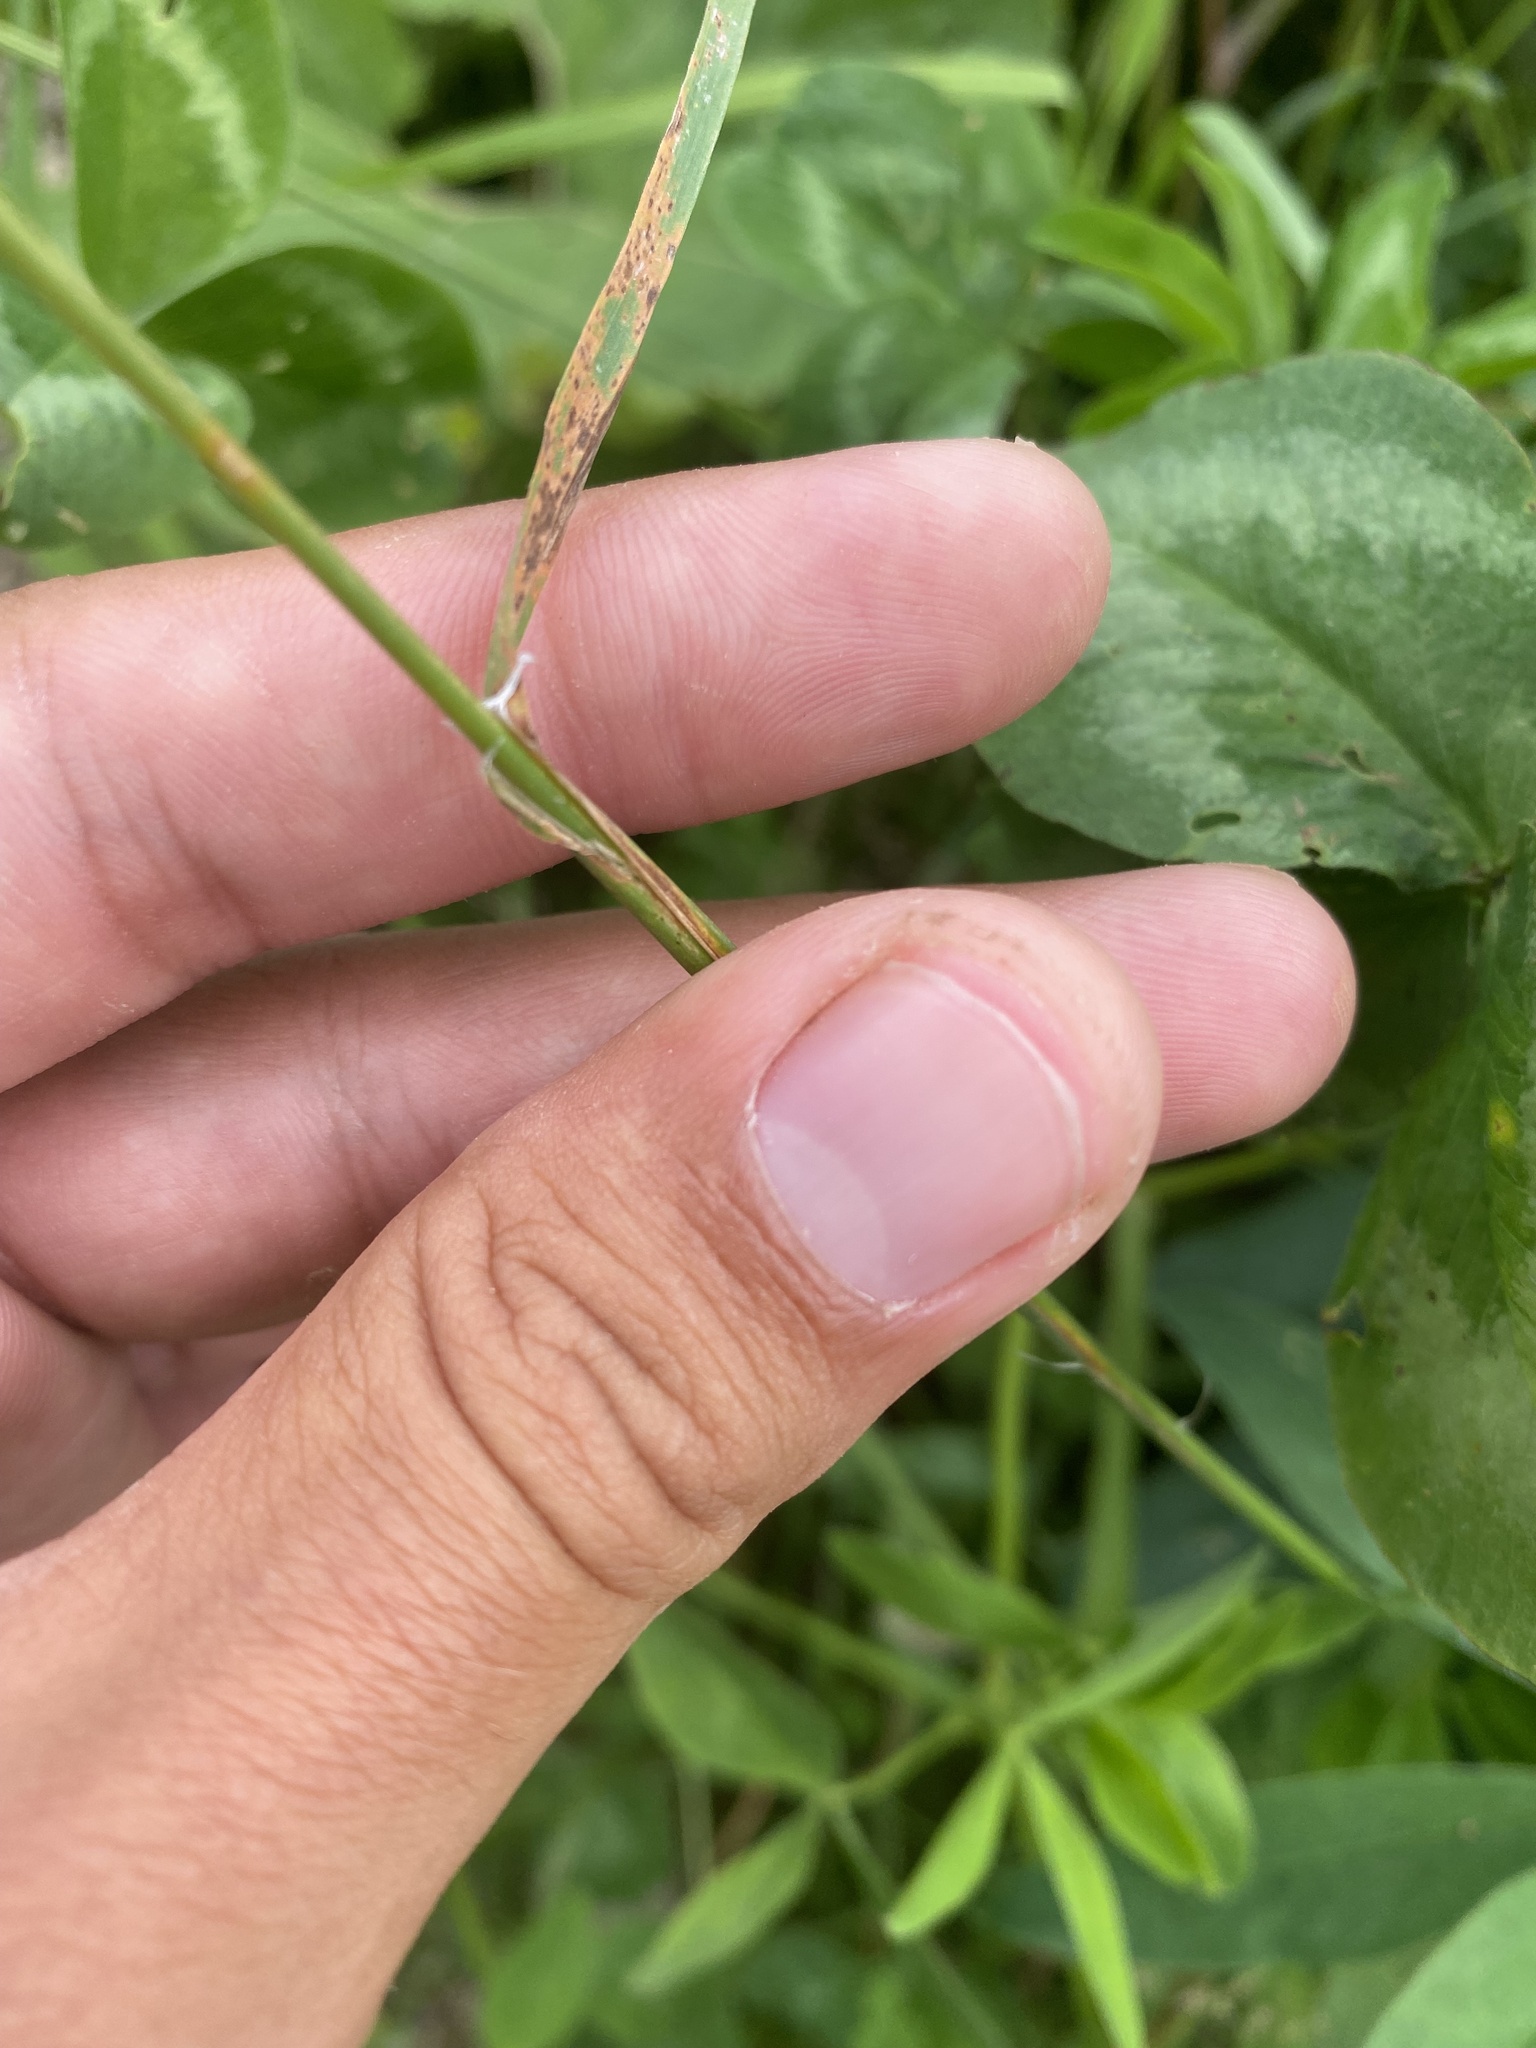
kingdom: Plantae
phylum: Tracheophyta
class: Liliopsida
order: Poales
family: Poaceae
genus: Dactylis
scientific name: Dactylis glomerata
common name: Orchardgrass
